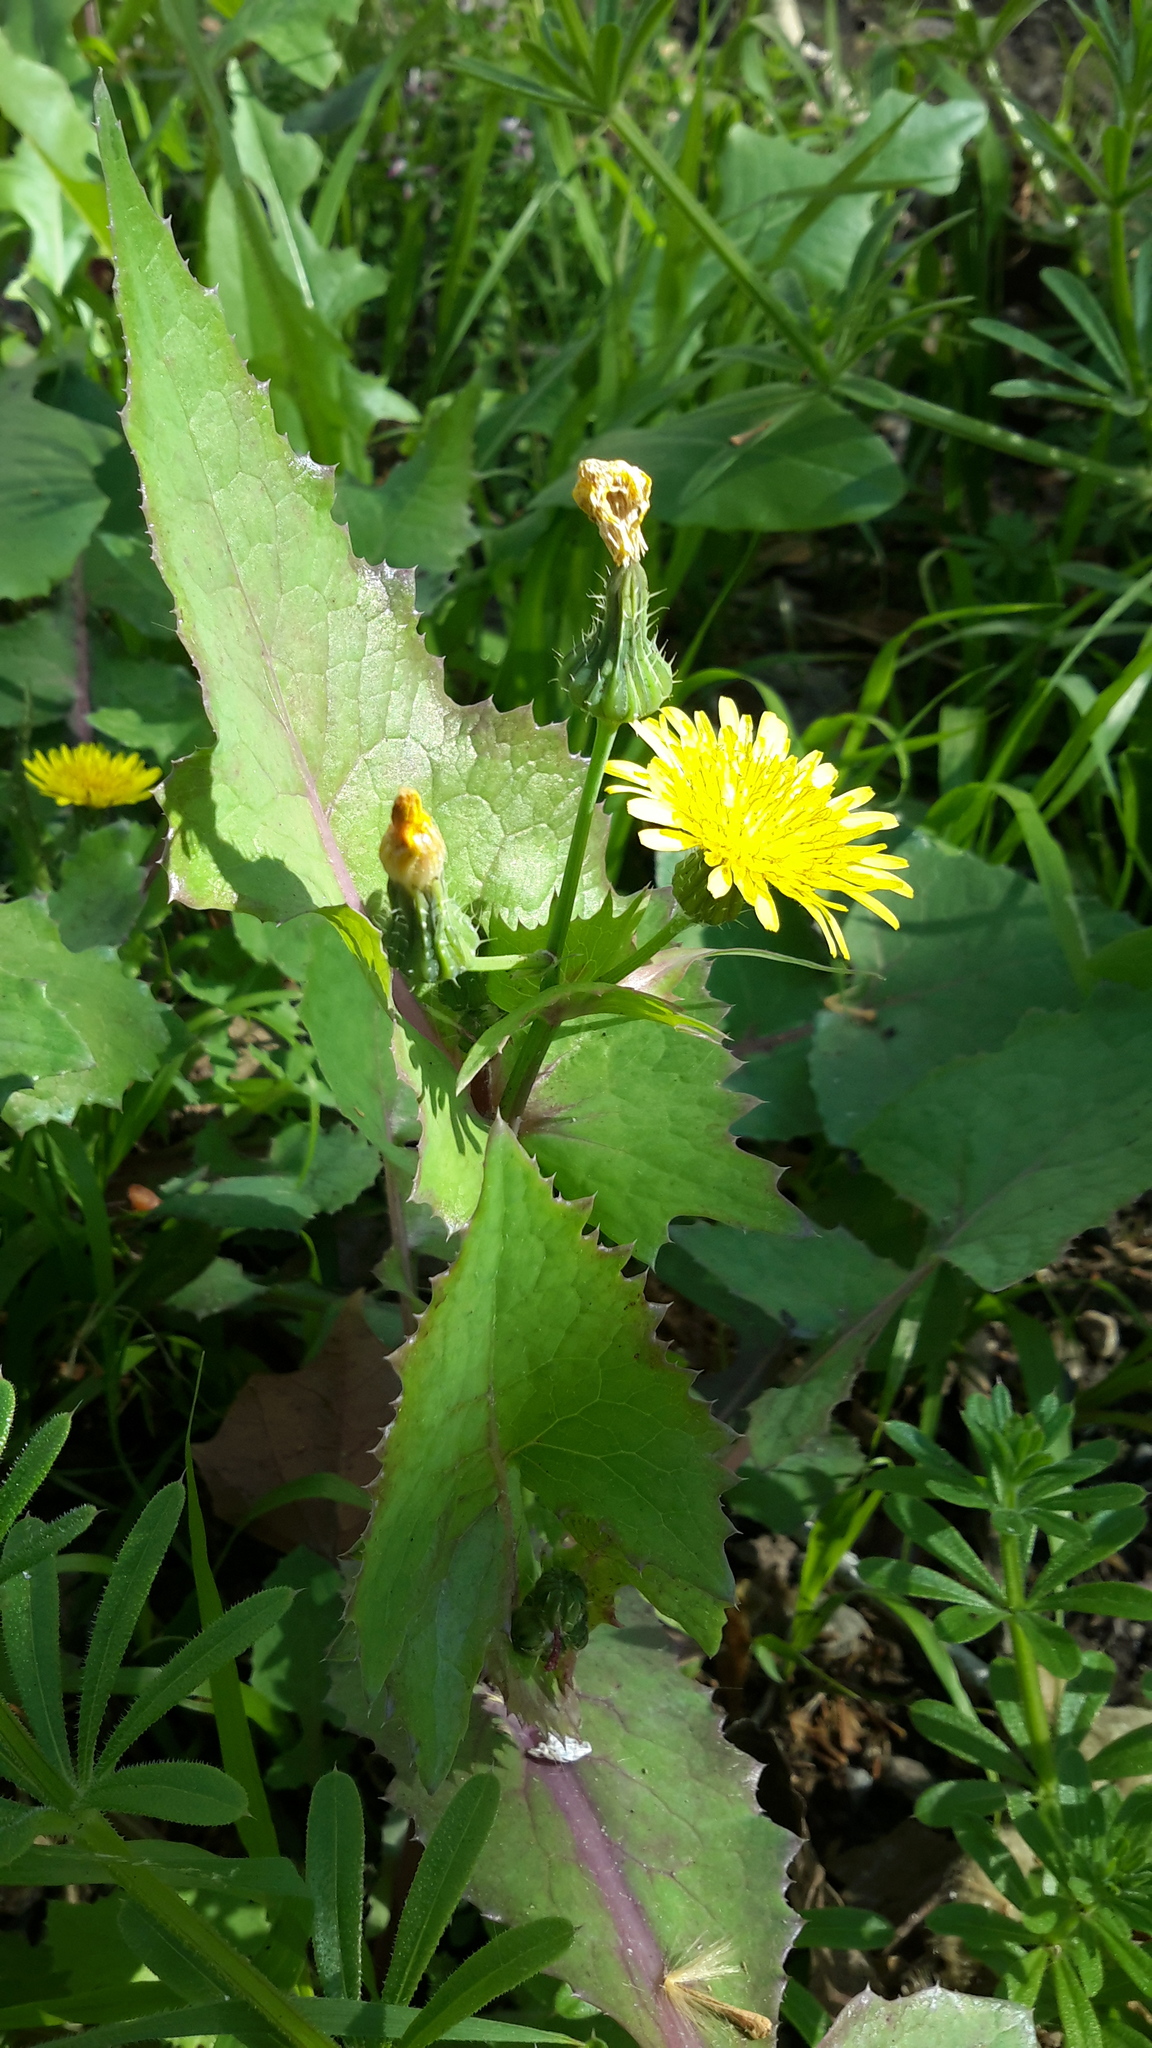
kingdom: Plantae
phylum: Tracheophyta
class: Magnoliopsida
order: Asterales
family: Asteraceae
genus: Sonchus
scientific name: Sonchus oleraceus
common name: Common sowthistle
